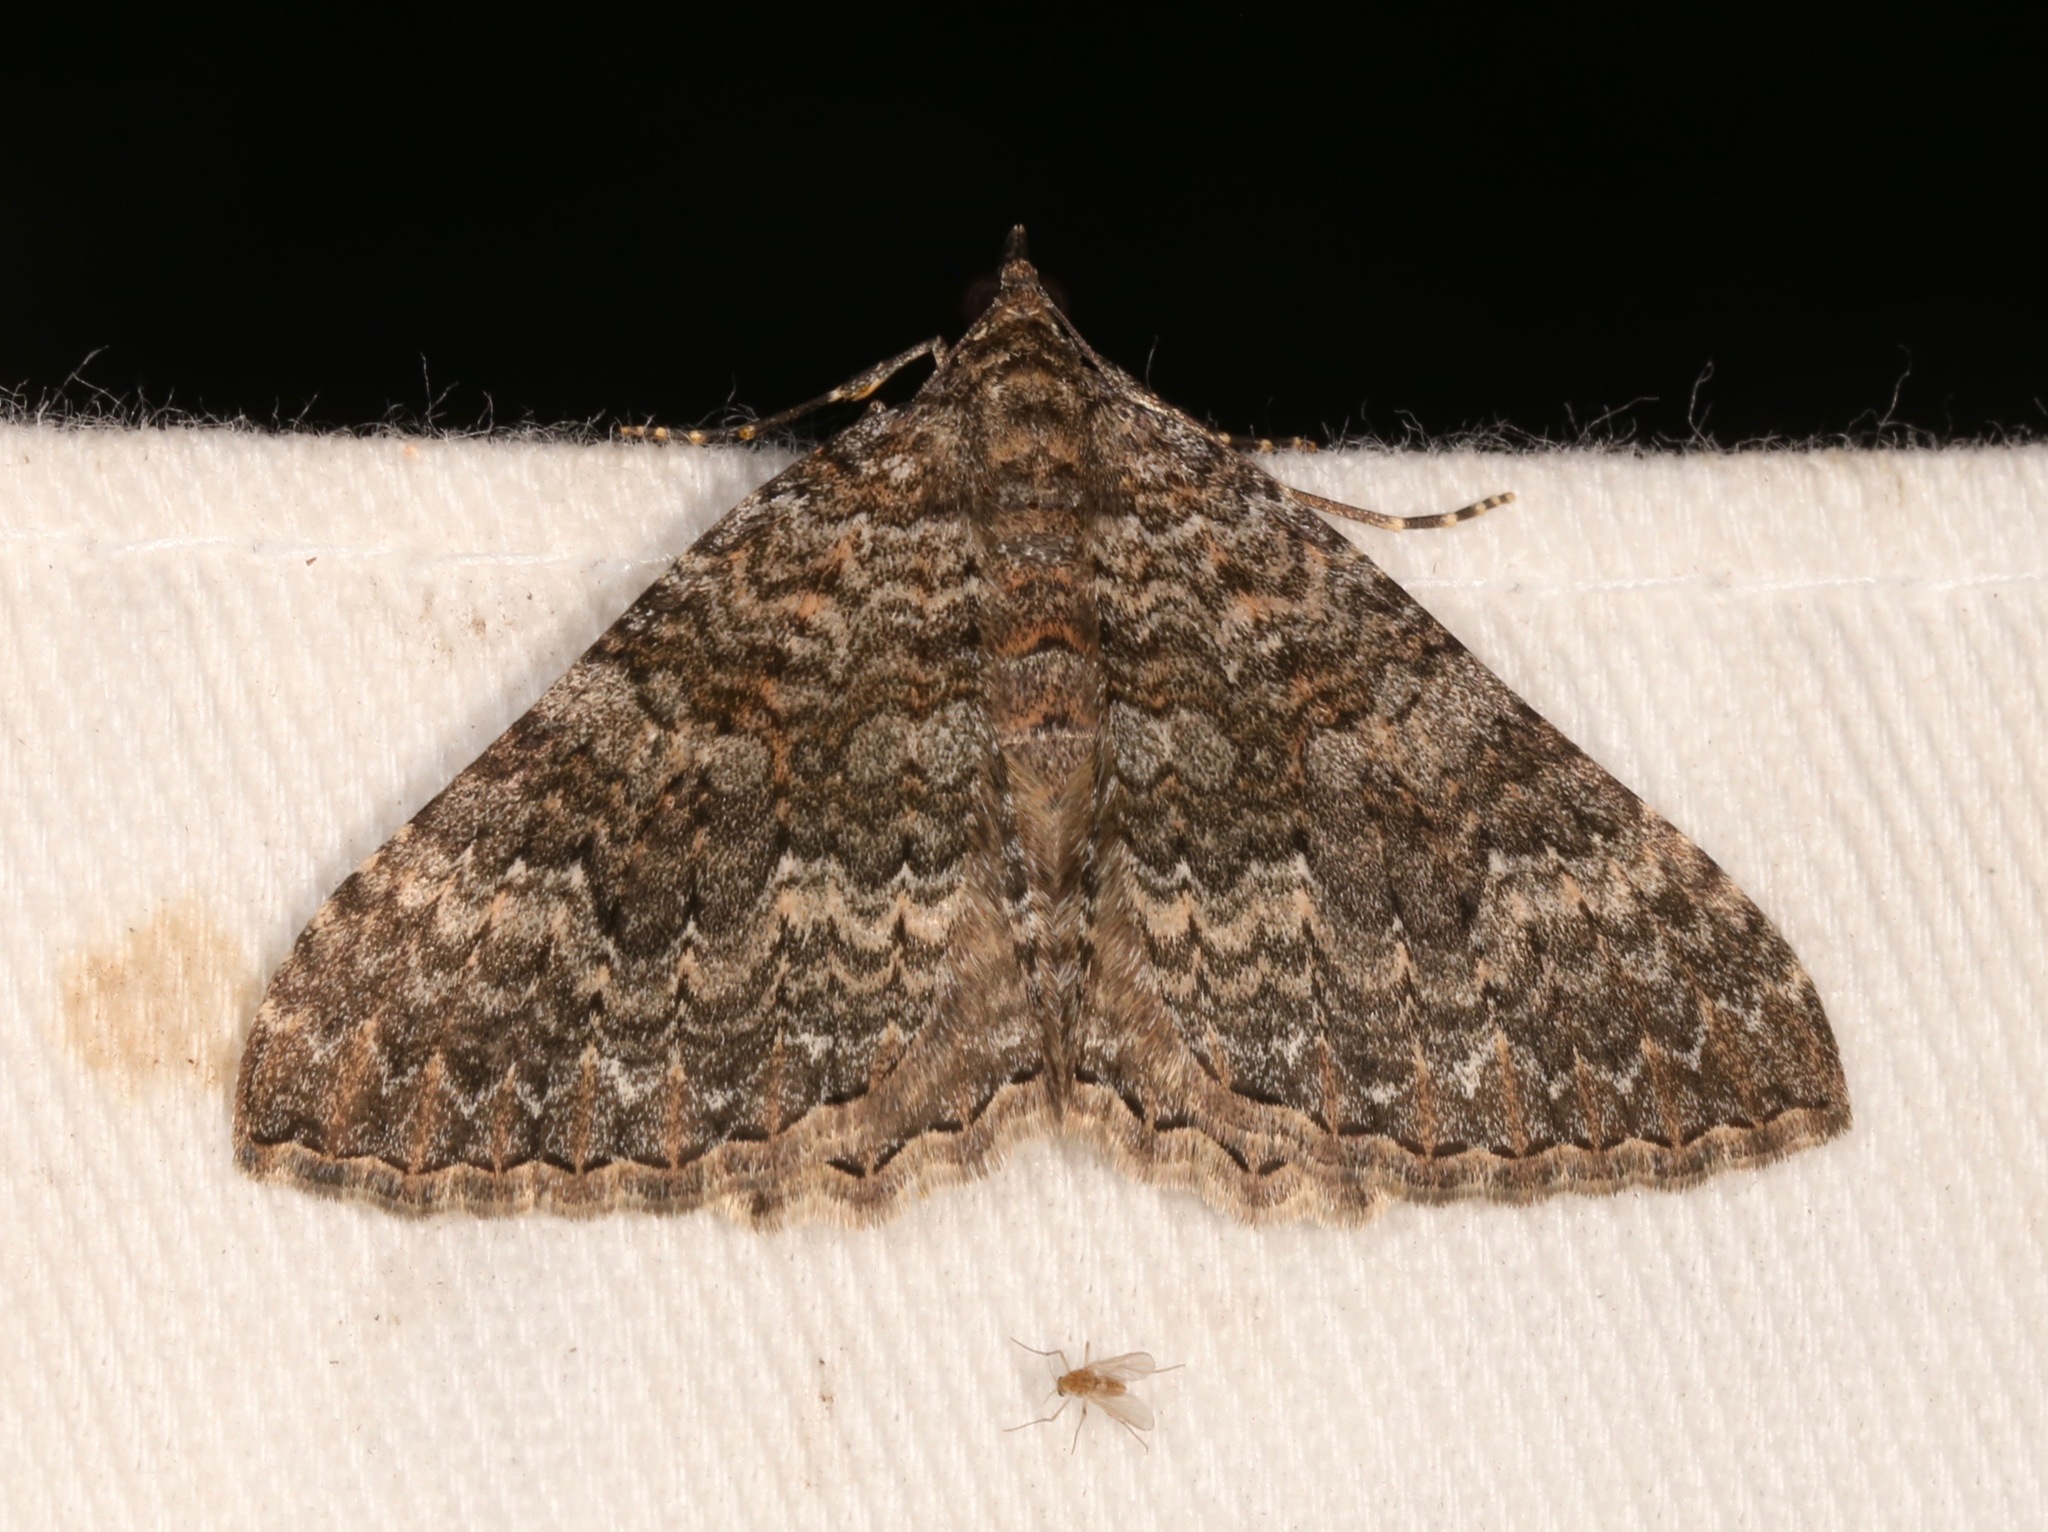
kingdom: Animalia
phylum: Arthropoda
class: Insecta
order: Lepidoptera
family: Geometridae
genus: Archirhoe
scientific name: Archirhoe neomexicana
